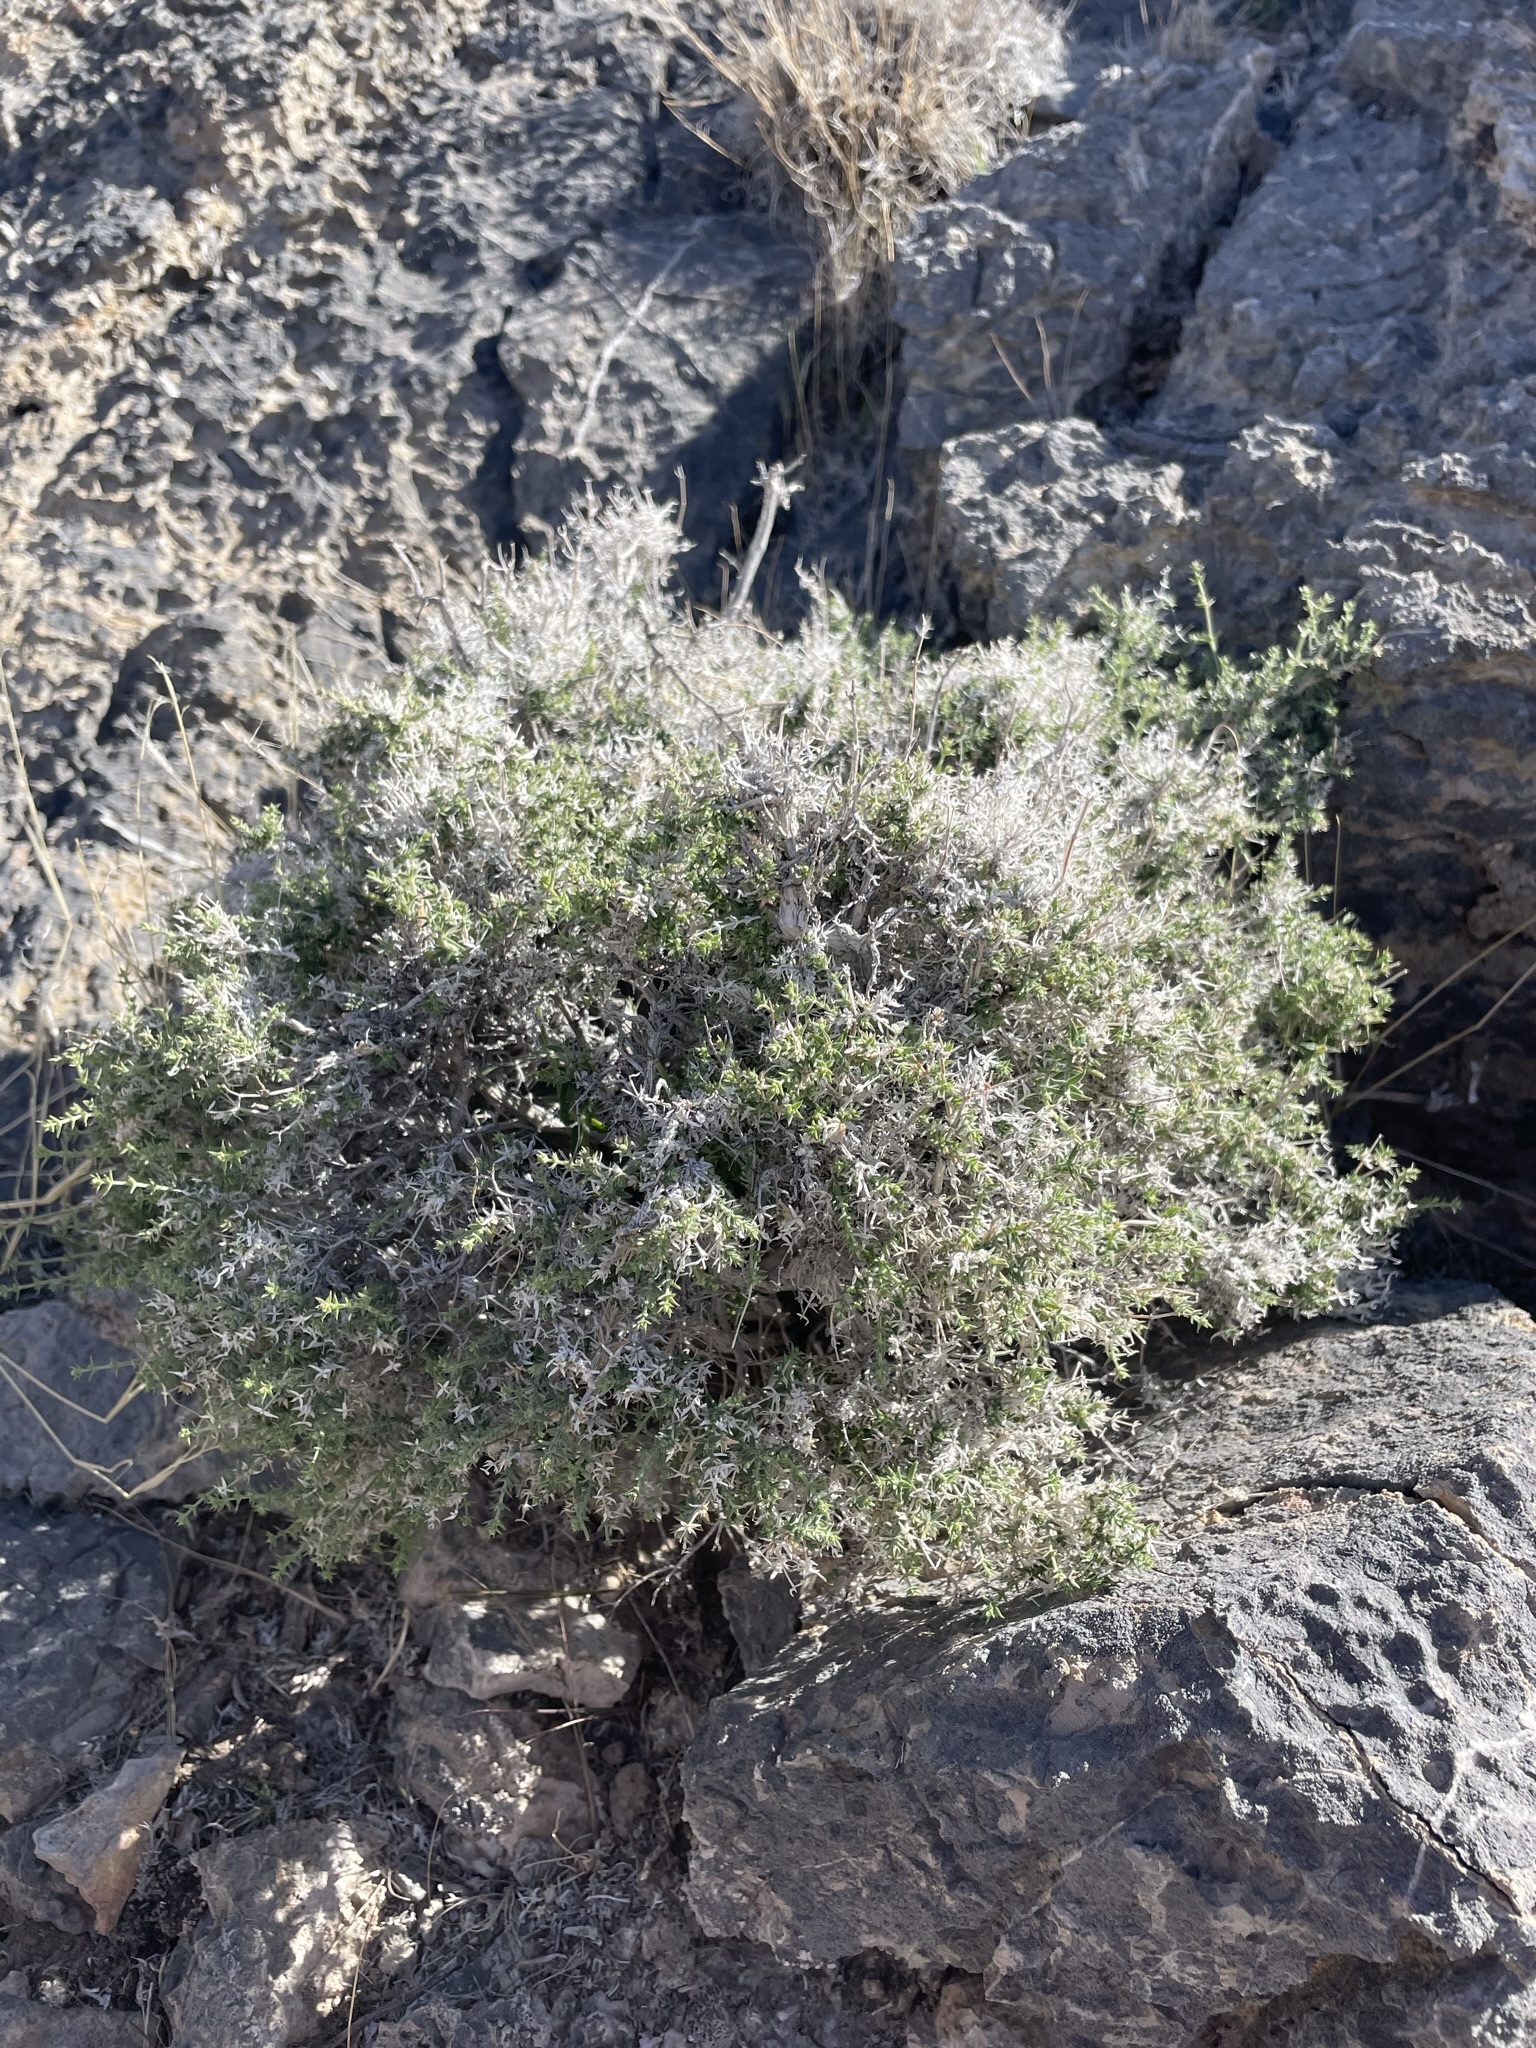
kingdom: Plantae
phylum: Tracheophyta
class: Magnoliopsida
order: Gentianales
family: Rubiaceae
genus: Galium
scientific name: Galium stellatum
